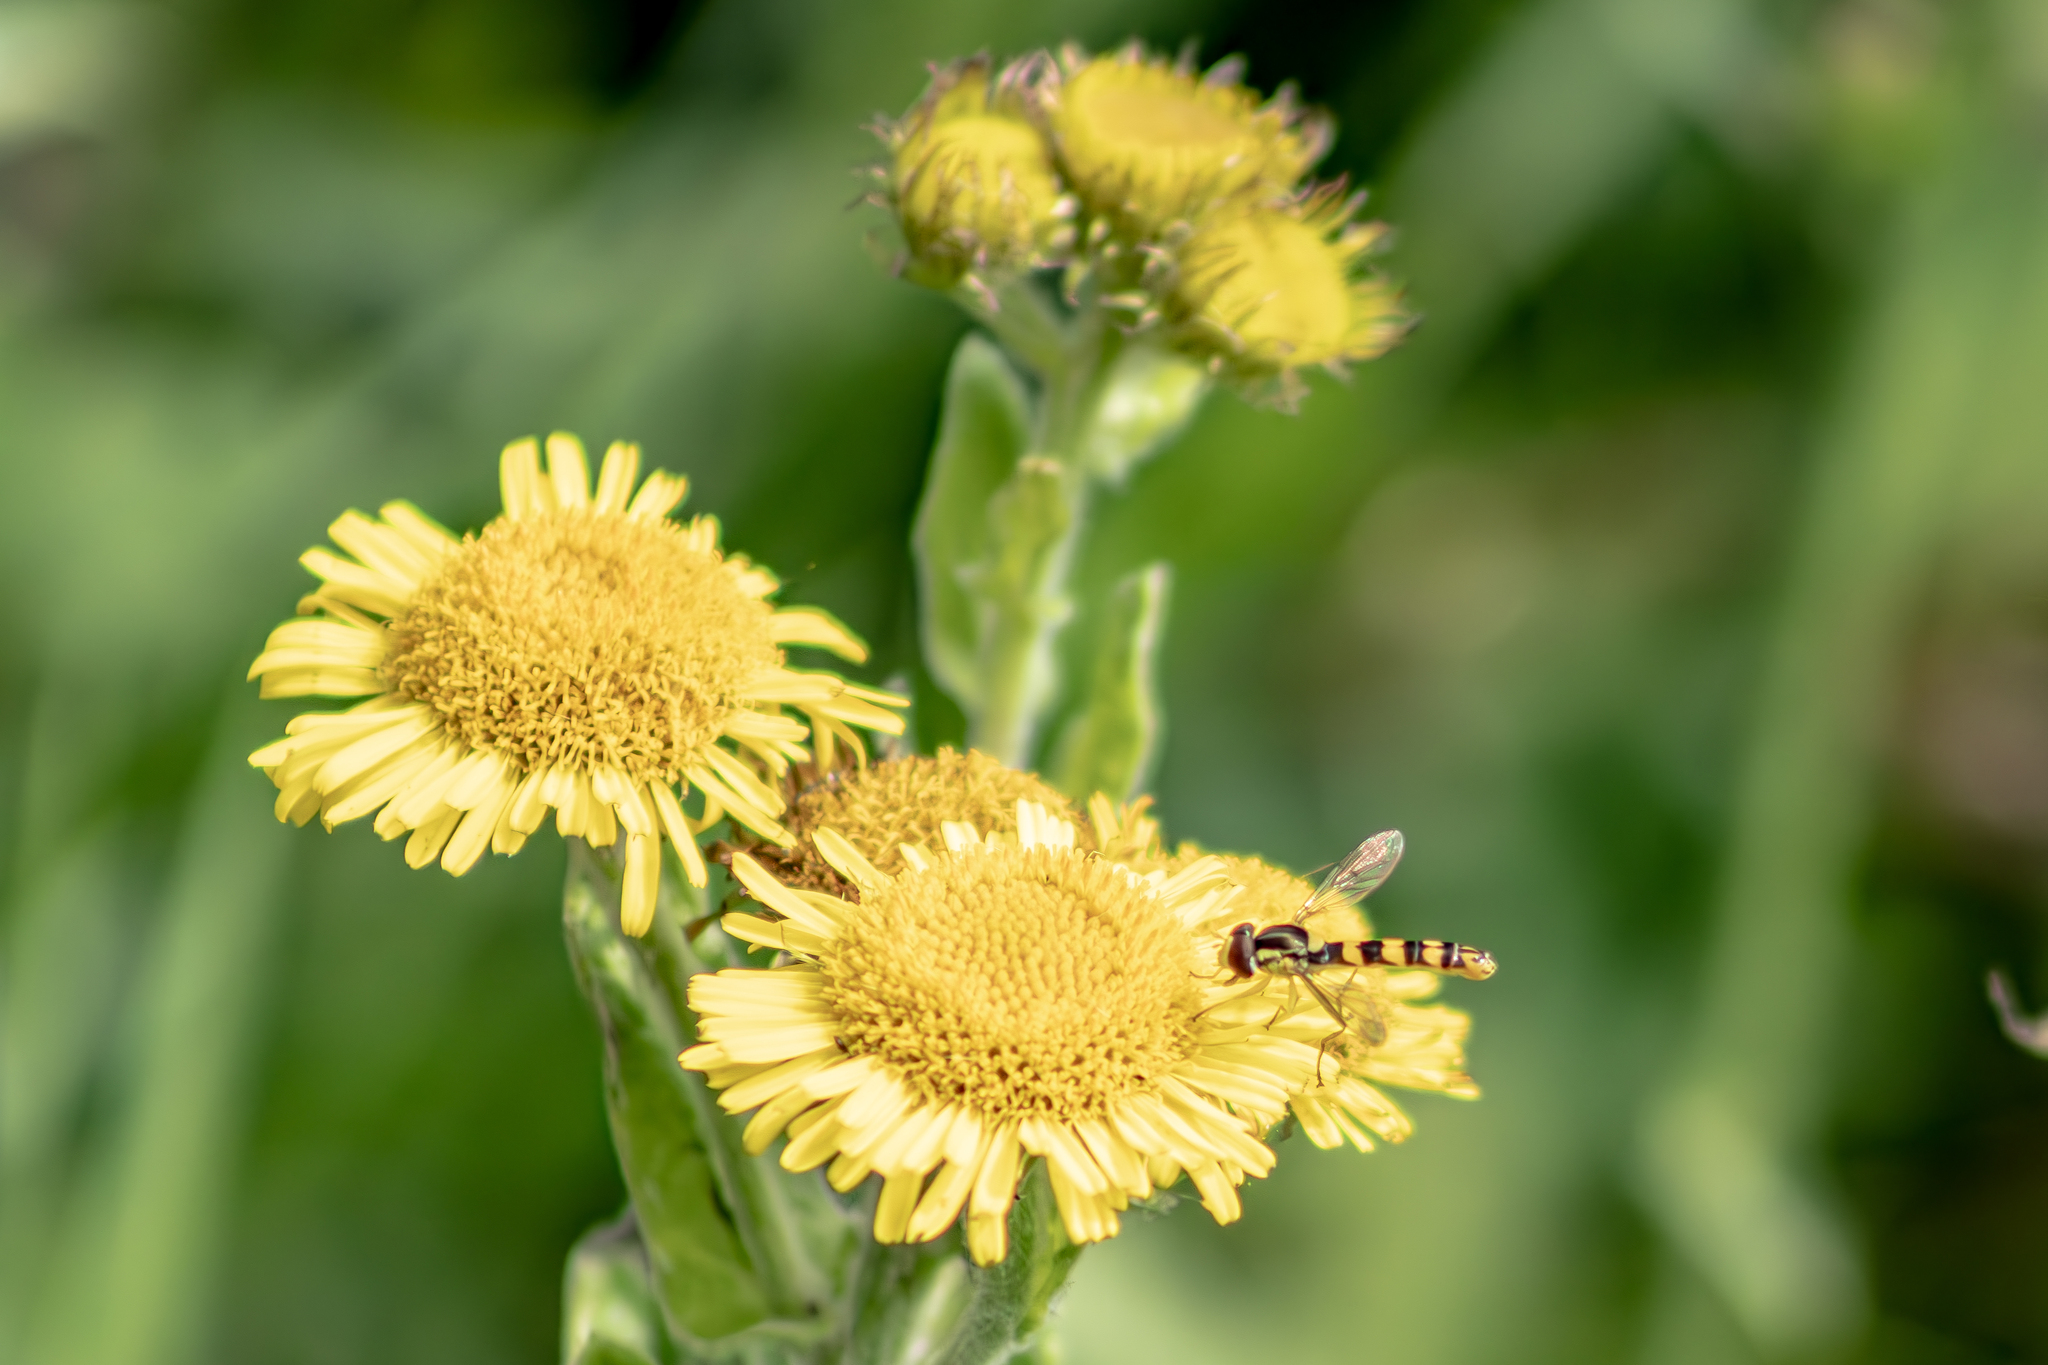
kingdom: Animalia
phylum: Arthropoda
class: Insecta
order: Diptera
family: Syrphidae
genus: Sphaerophoria
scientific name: Sphaerophoria scripta
